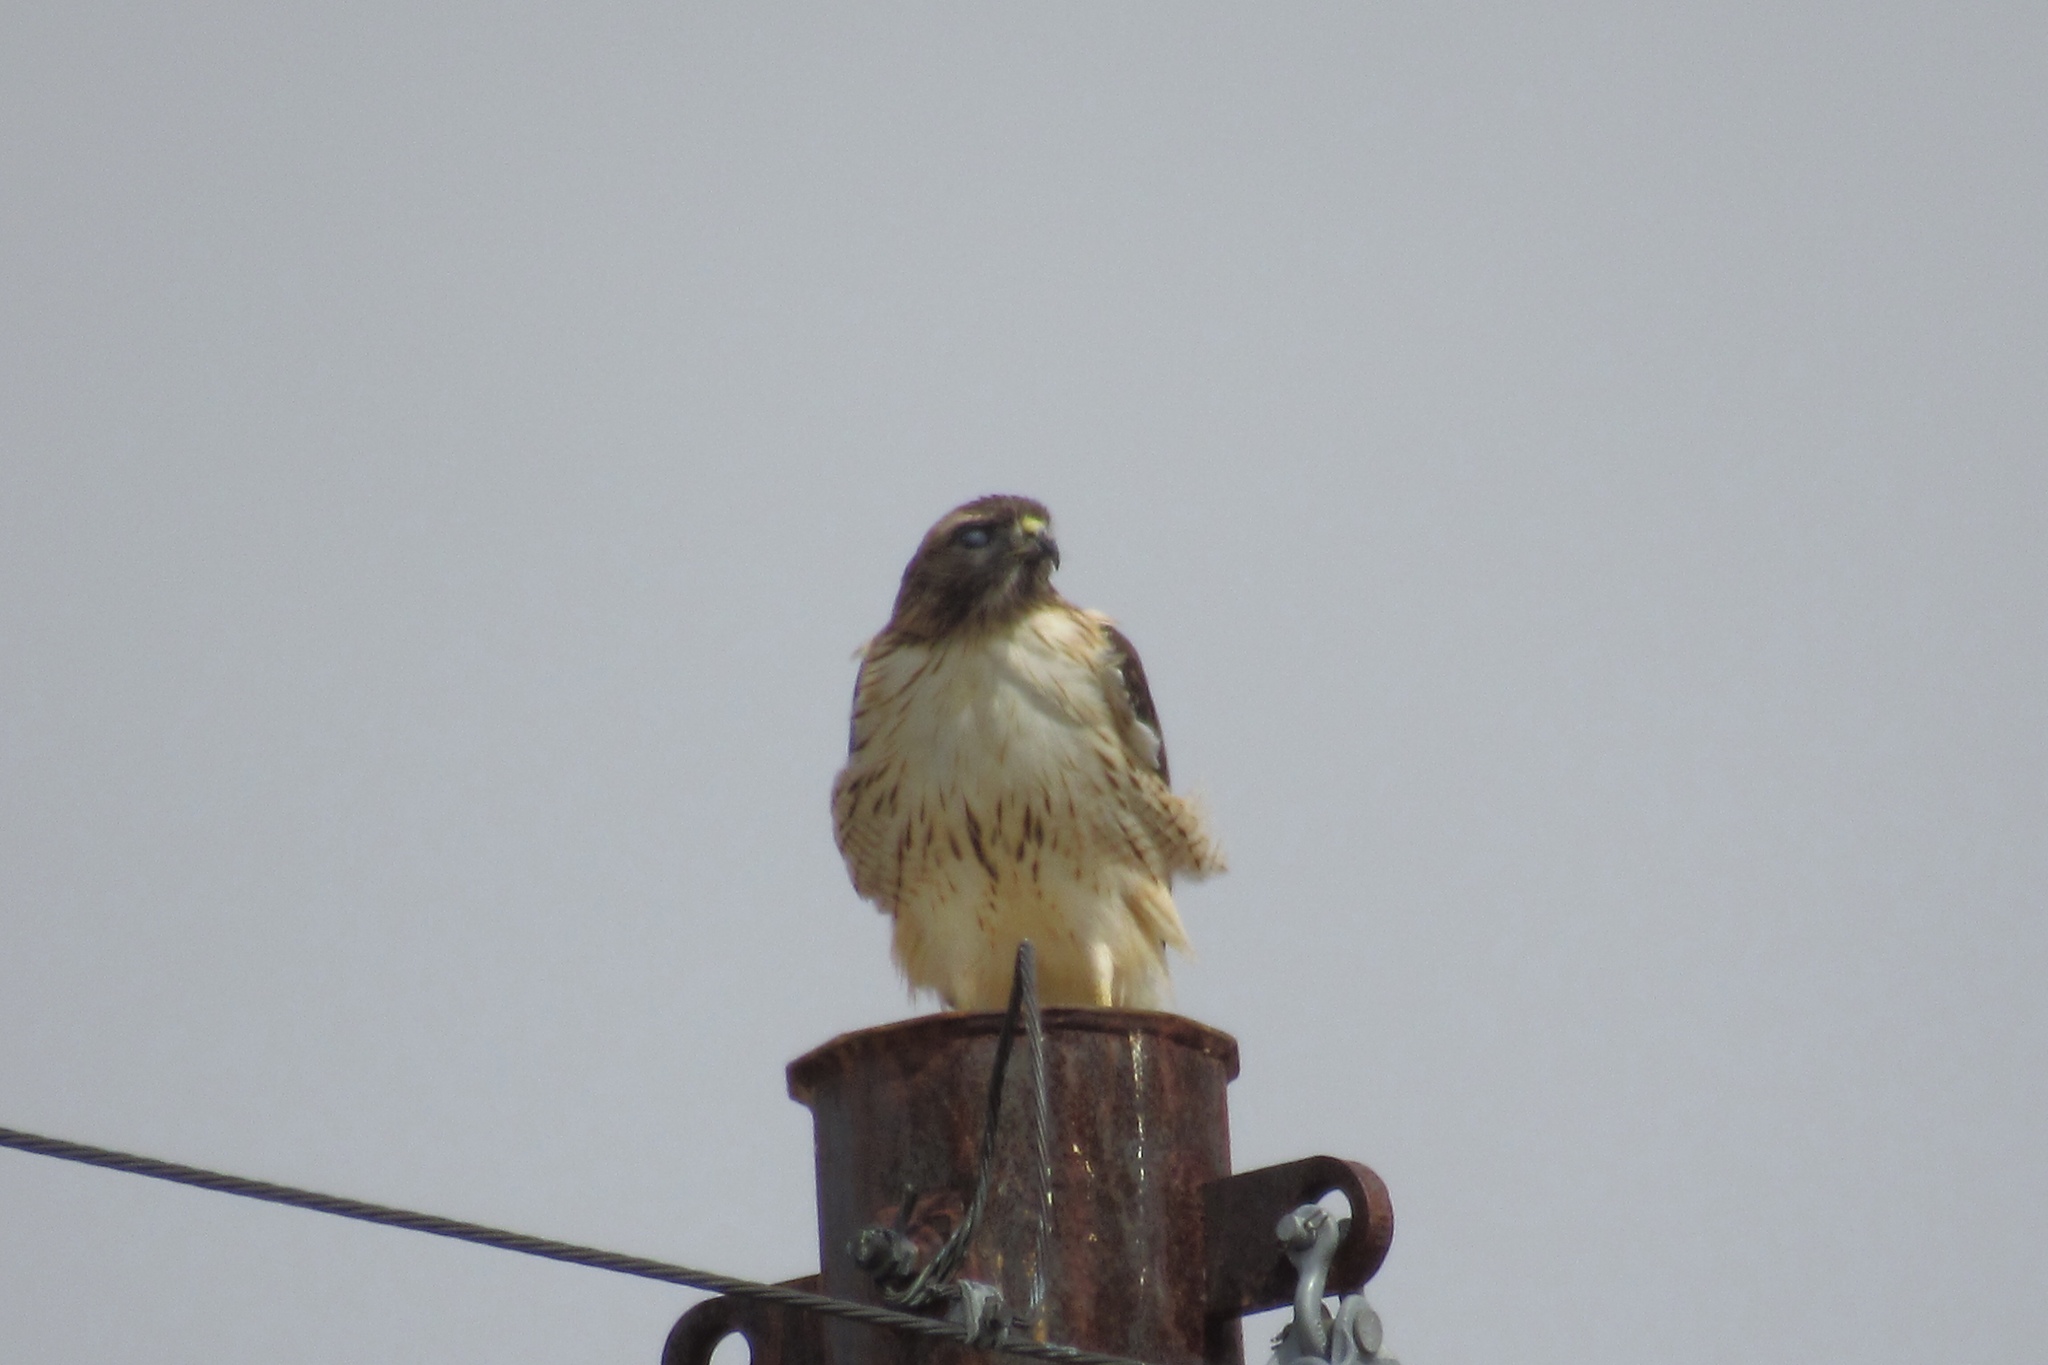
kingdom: Animalia
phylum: Chordata
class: Aves
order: Accipitriformes
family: Accipitridae
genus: Buteo
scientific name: Buteo jamaicensis
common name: Red-tailed hawk
